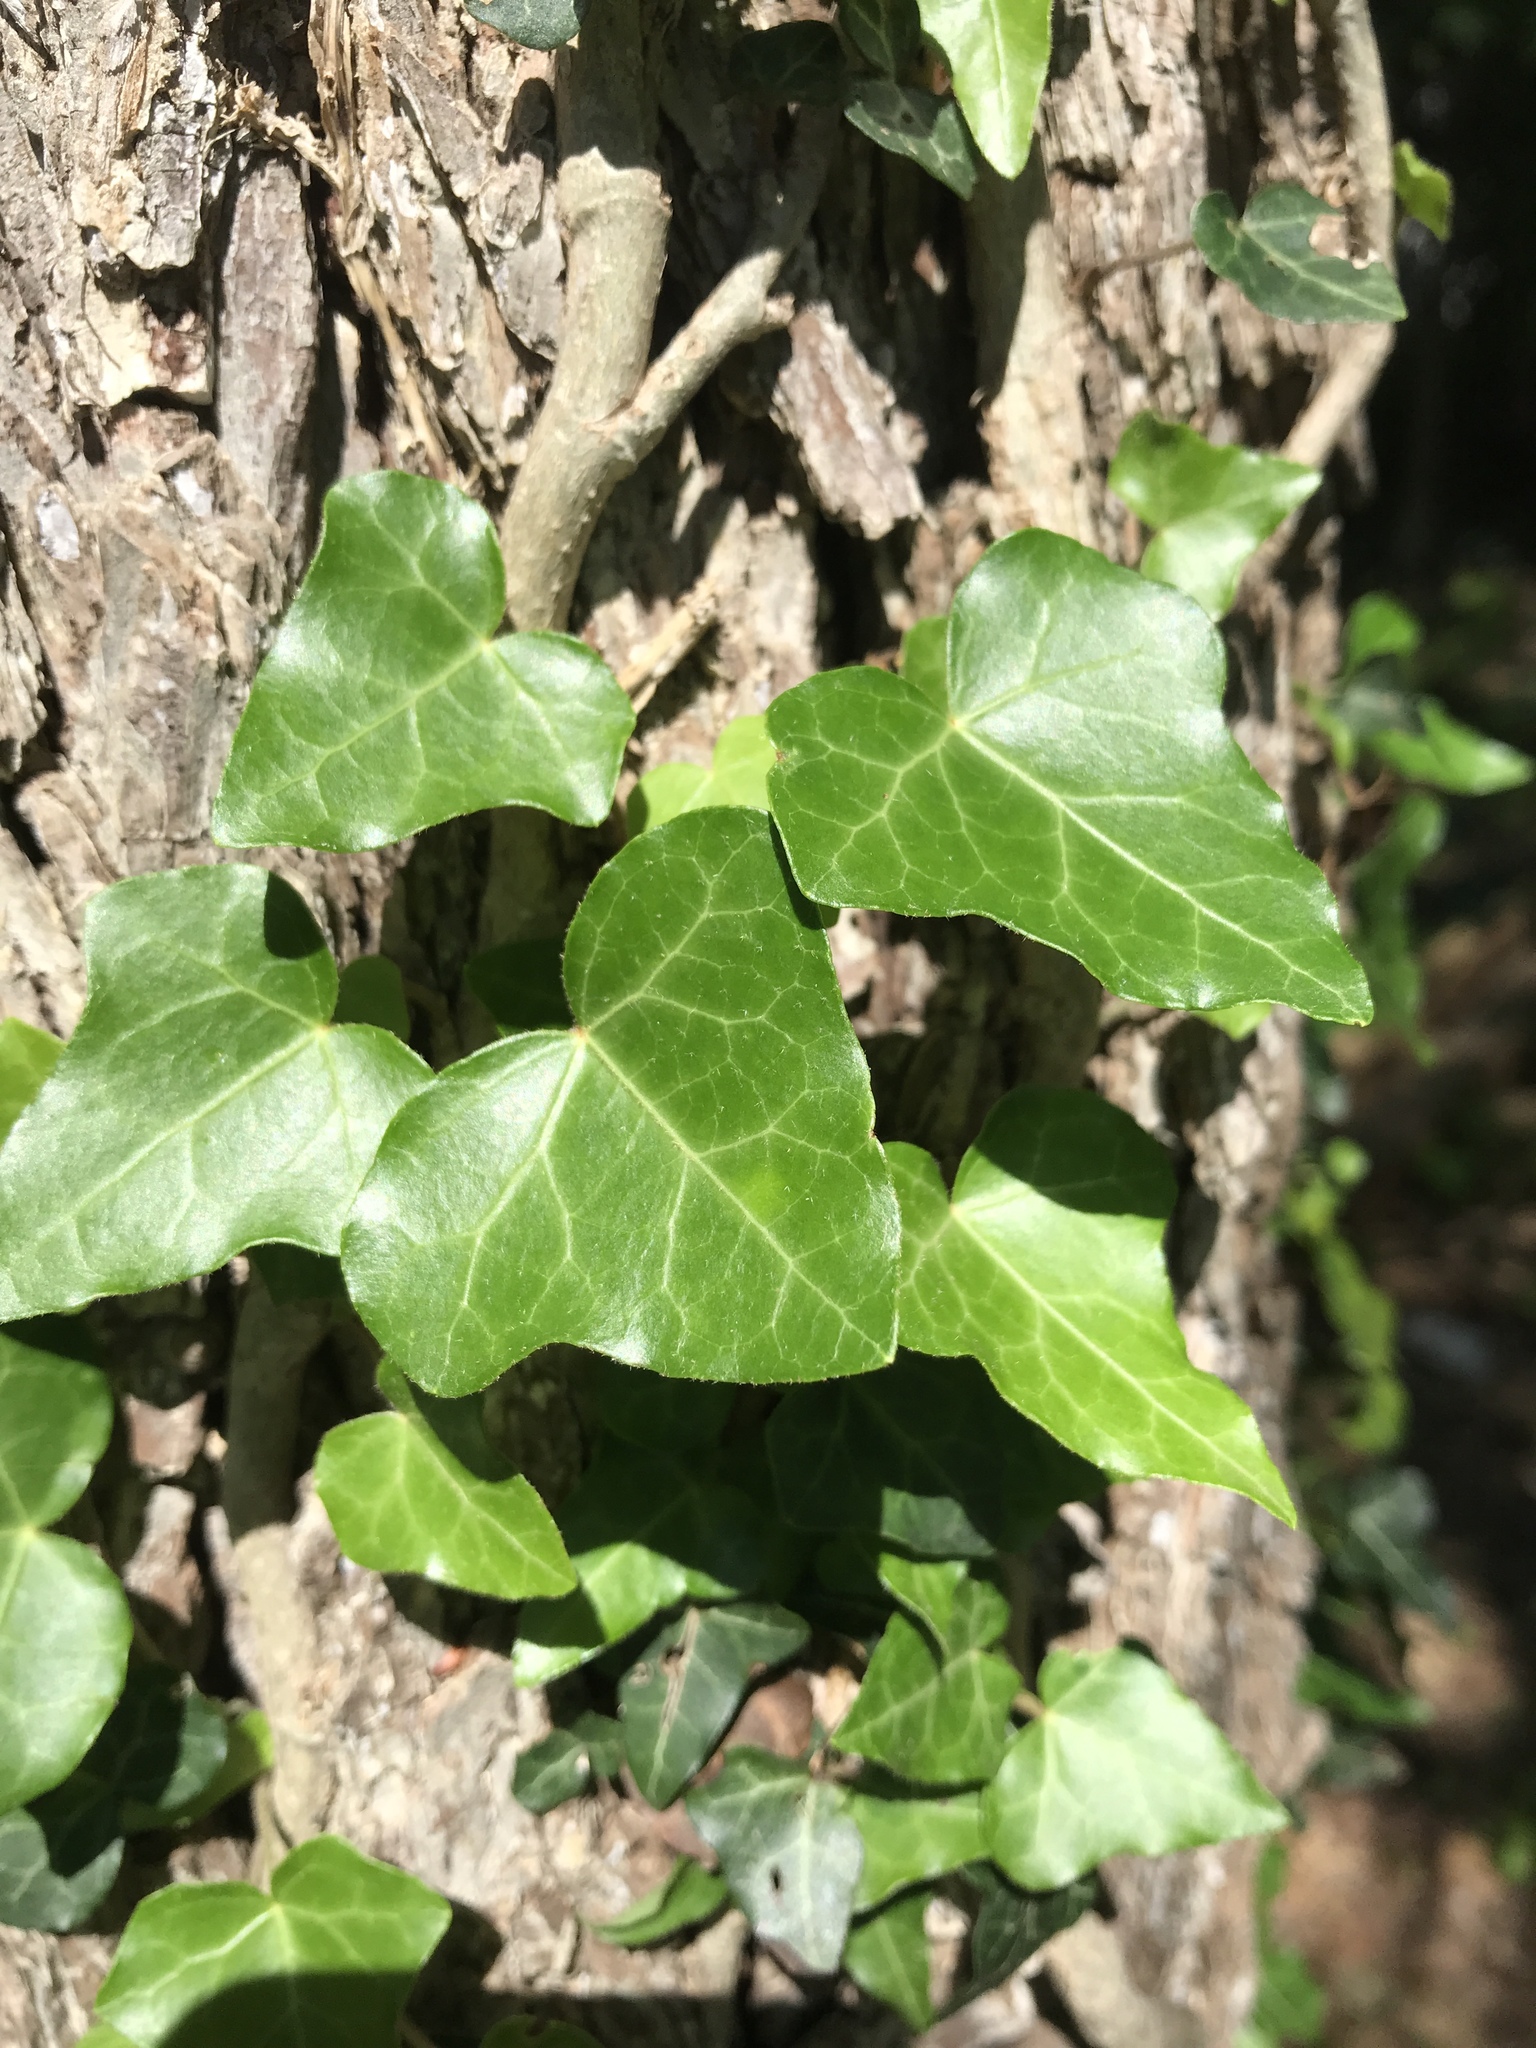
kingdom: Plantae
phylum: Tracheophyta
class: Magnoliopsida
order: Apiales
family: Araliaceae
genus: Hedera
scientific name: Hedera helix
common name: Ivy
